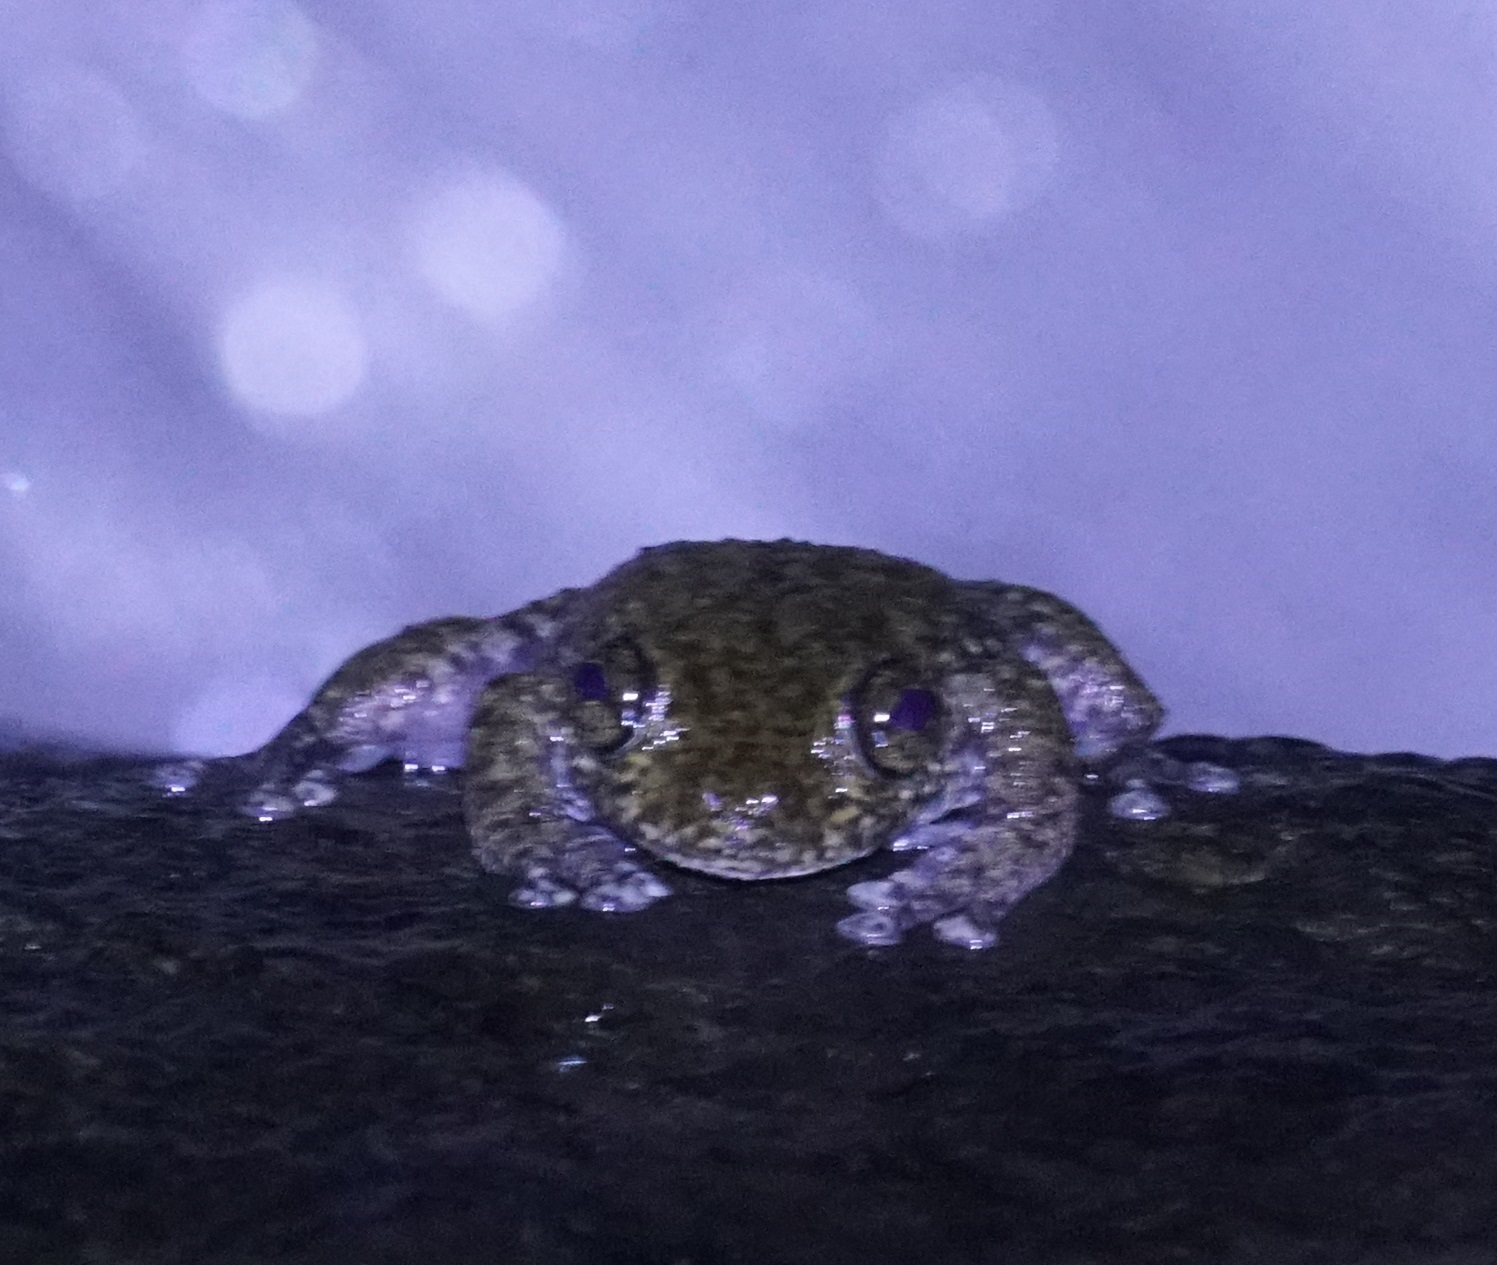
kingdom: Animalia
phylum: Chordata
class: Amphibia
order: Anura
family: Pelodryadidae
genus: Ranoidea
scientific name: Ranoidea nannotis
